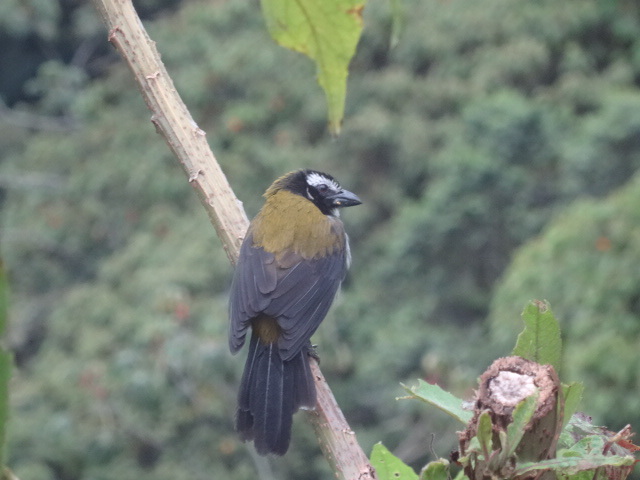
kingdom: Animalia
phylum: Chordata
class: Aves
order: Passeriformes
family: Thraupidae
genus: Saltator
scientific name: Saltator atripennis
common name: Black-winged saltator
